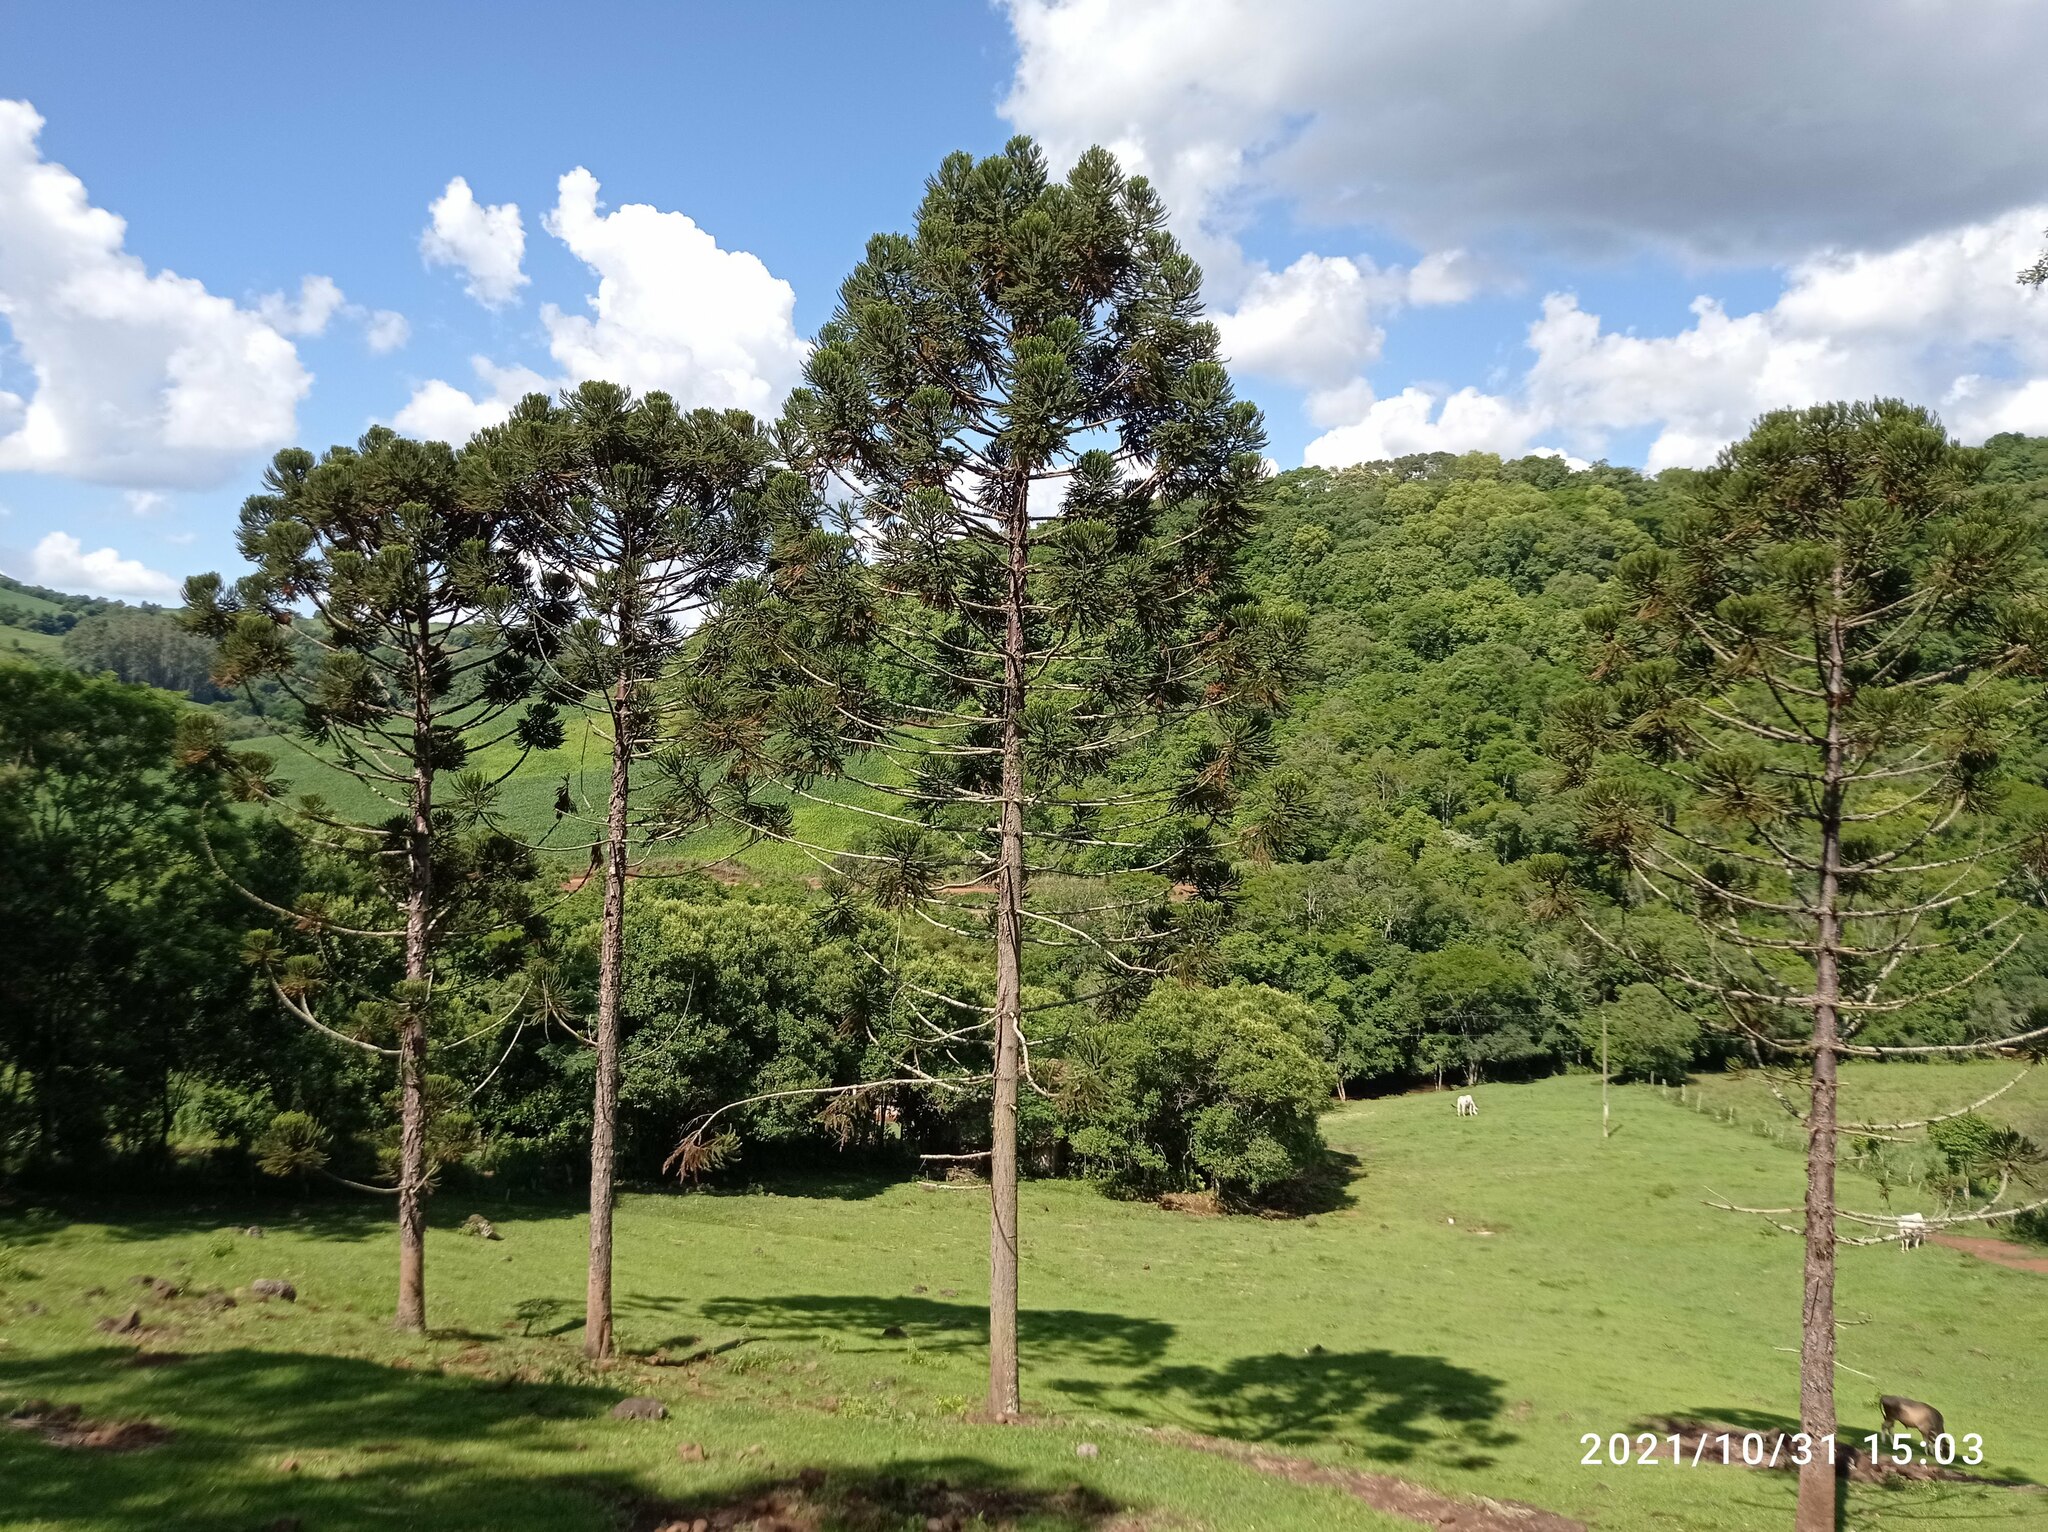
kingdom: Plantae
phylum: Tracheophyta
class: Pinopsida
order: Pinales
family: Araucariaceae
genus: Araucaria
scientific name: Araucaria angustifolia
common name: Candelabra tree
